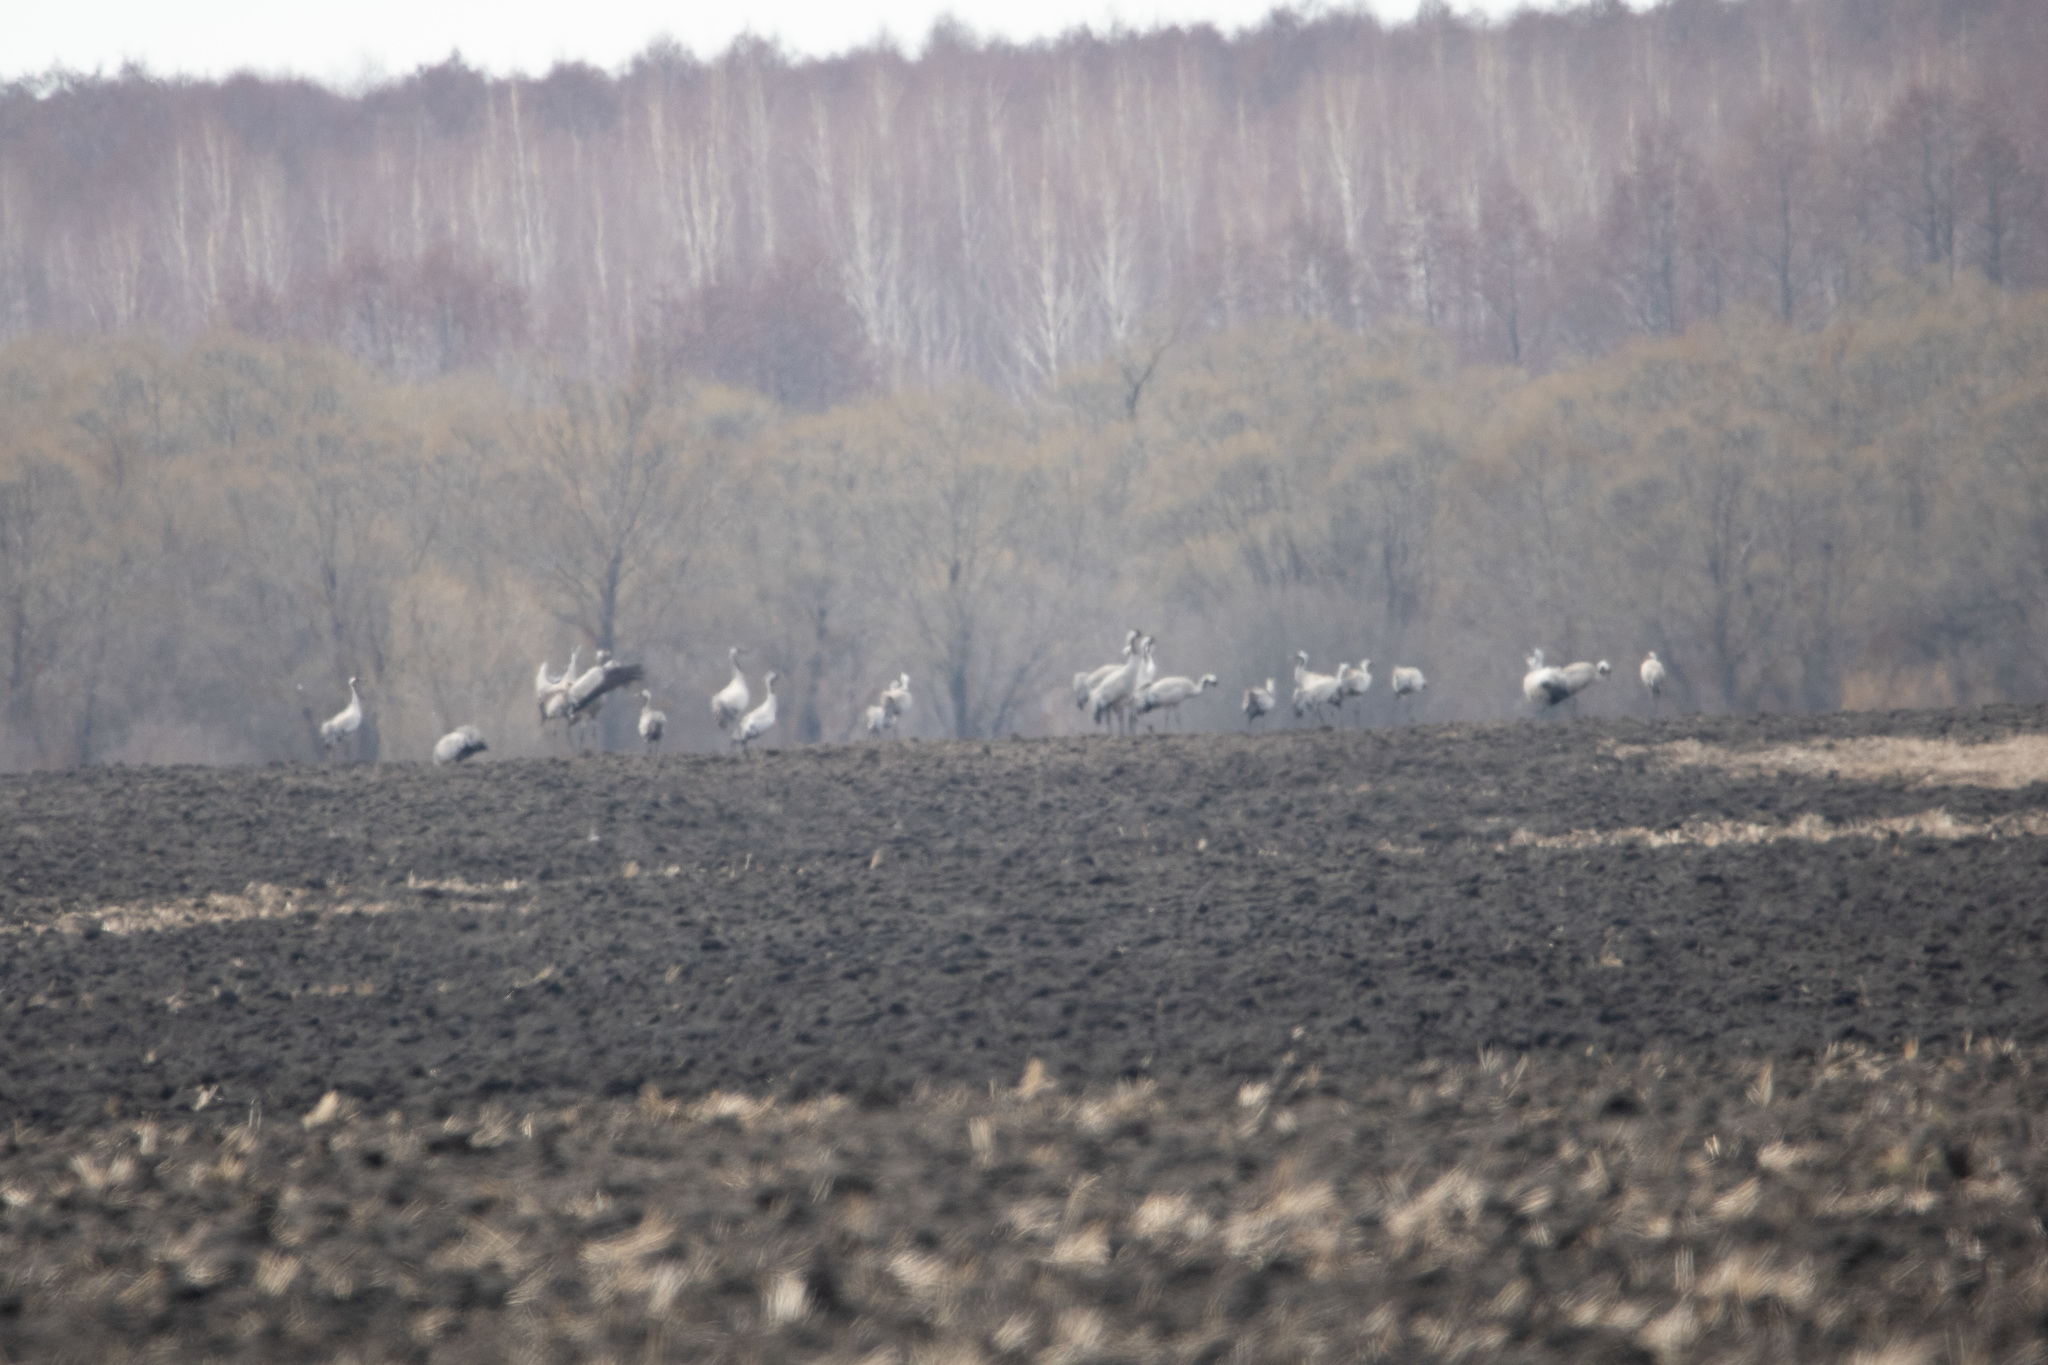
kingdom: Animalia
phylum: Chordata
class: Aves
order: Gruiformes
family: Gruidae
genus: Grus
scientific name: Grus grus
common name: Common crane
